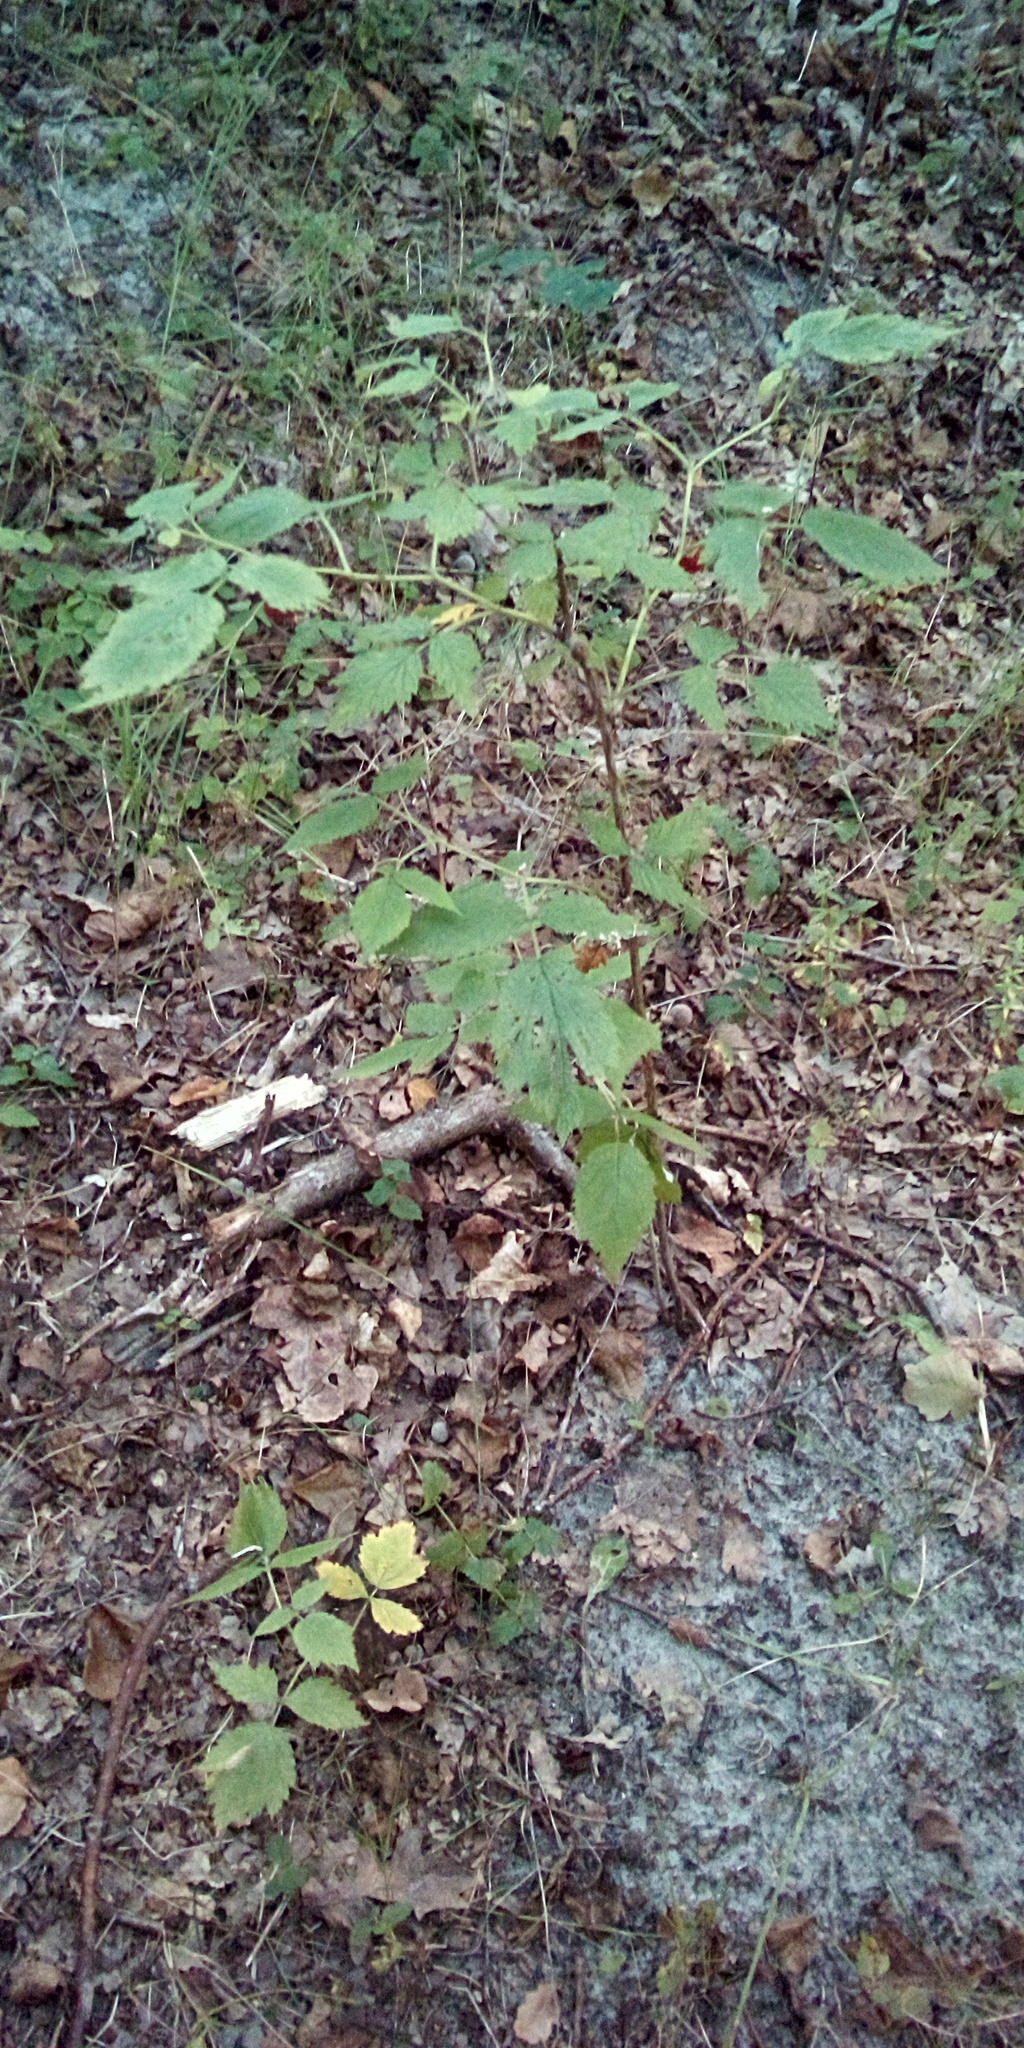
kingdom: Plantae
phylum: Tracheophyta
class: Magnoliopsida
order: Rosales
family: Rosaceae
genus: Rubus
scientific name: Rubus idaeus
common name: Raspberry
